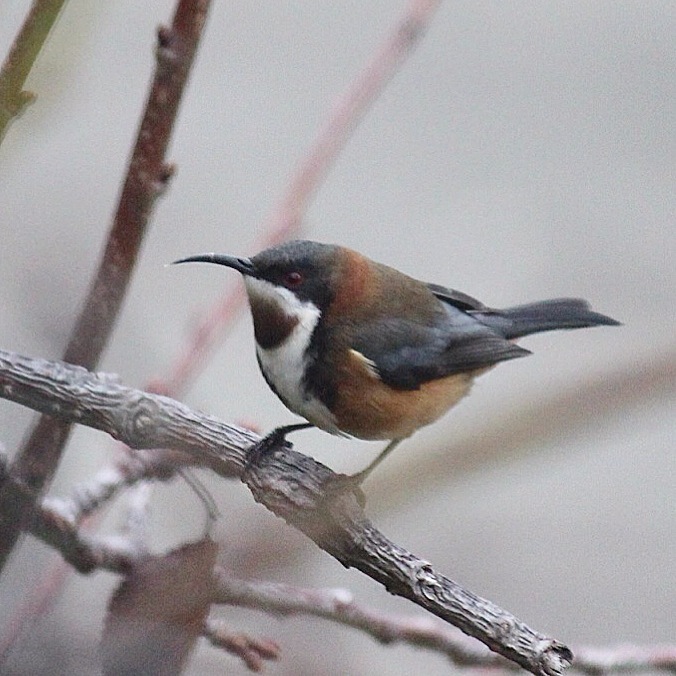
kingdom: Animalia
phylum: Chordata
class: Aves
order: Passeriformes
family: Meliphagidae
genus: Acanthorhynchus
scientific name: Acanthorhynchus tenuirostris
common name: Eastern spinebill
